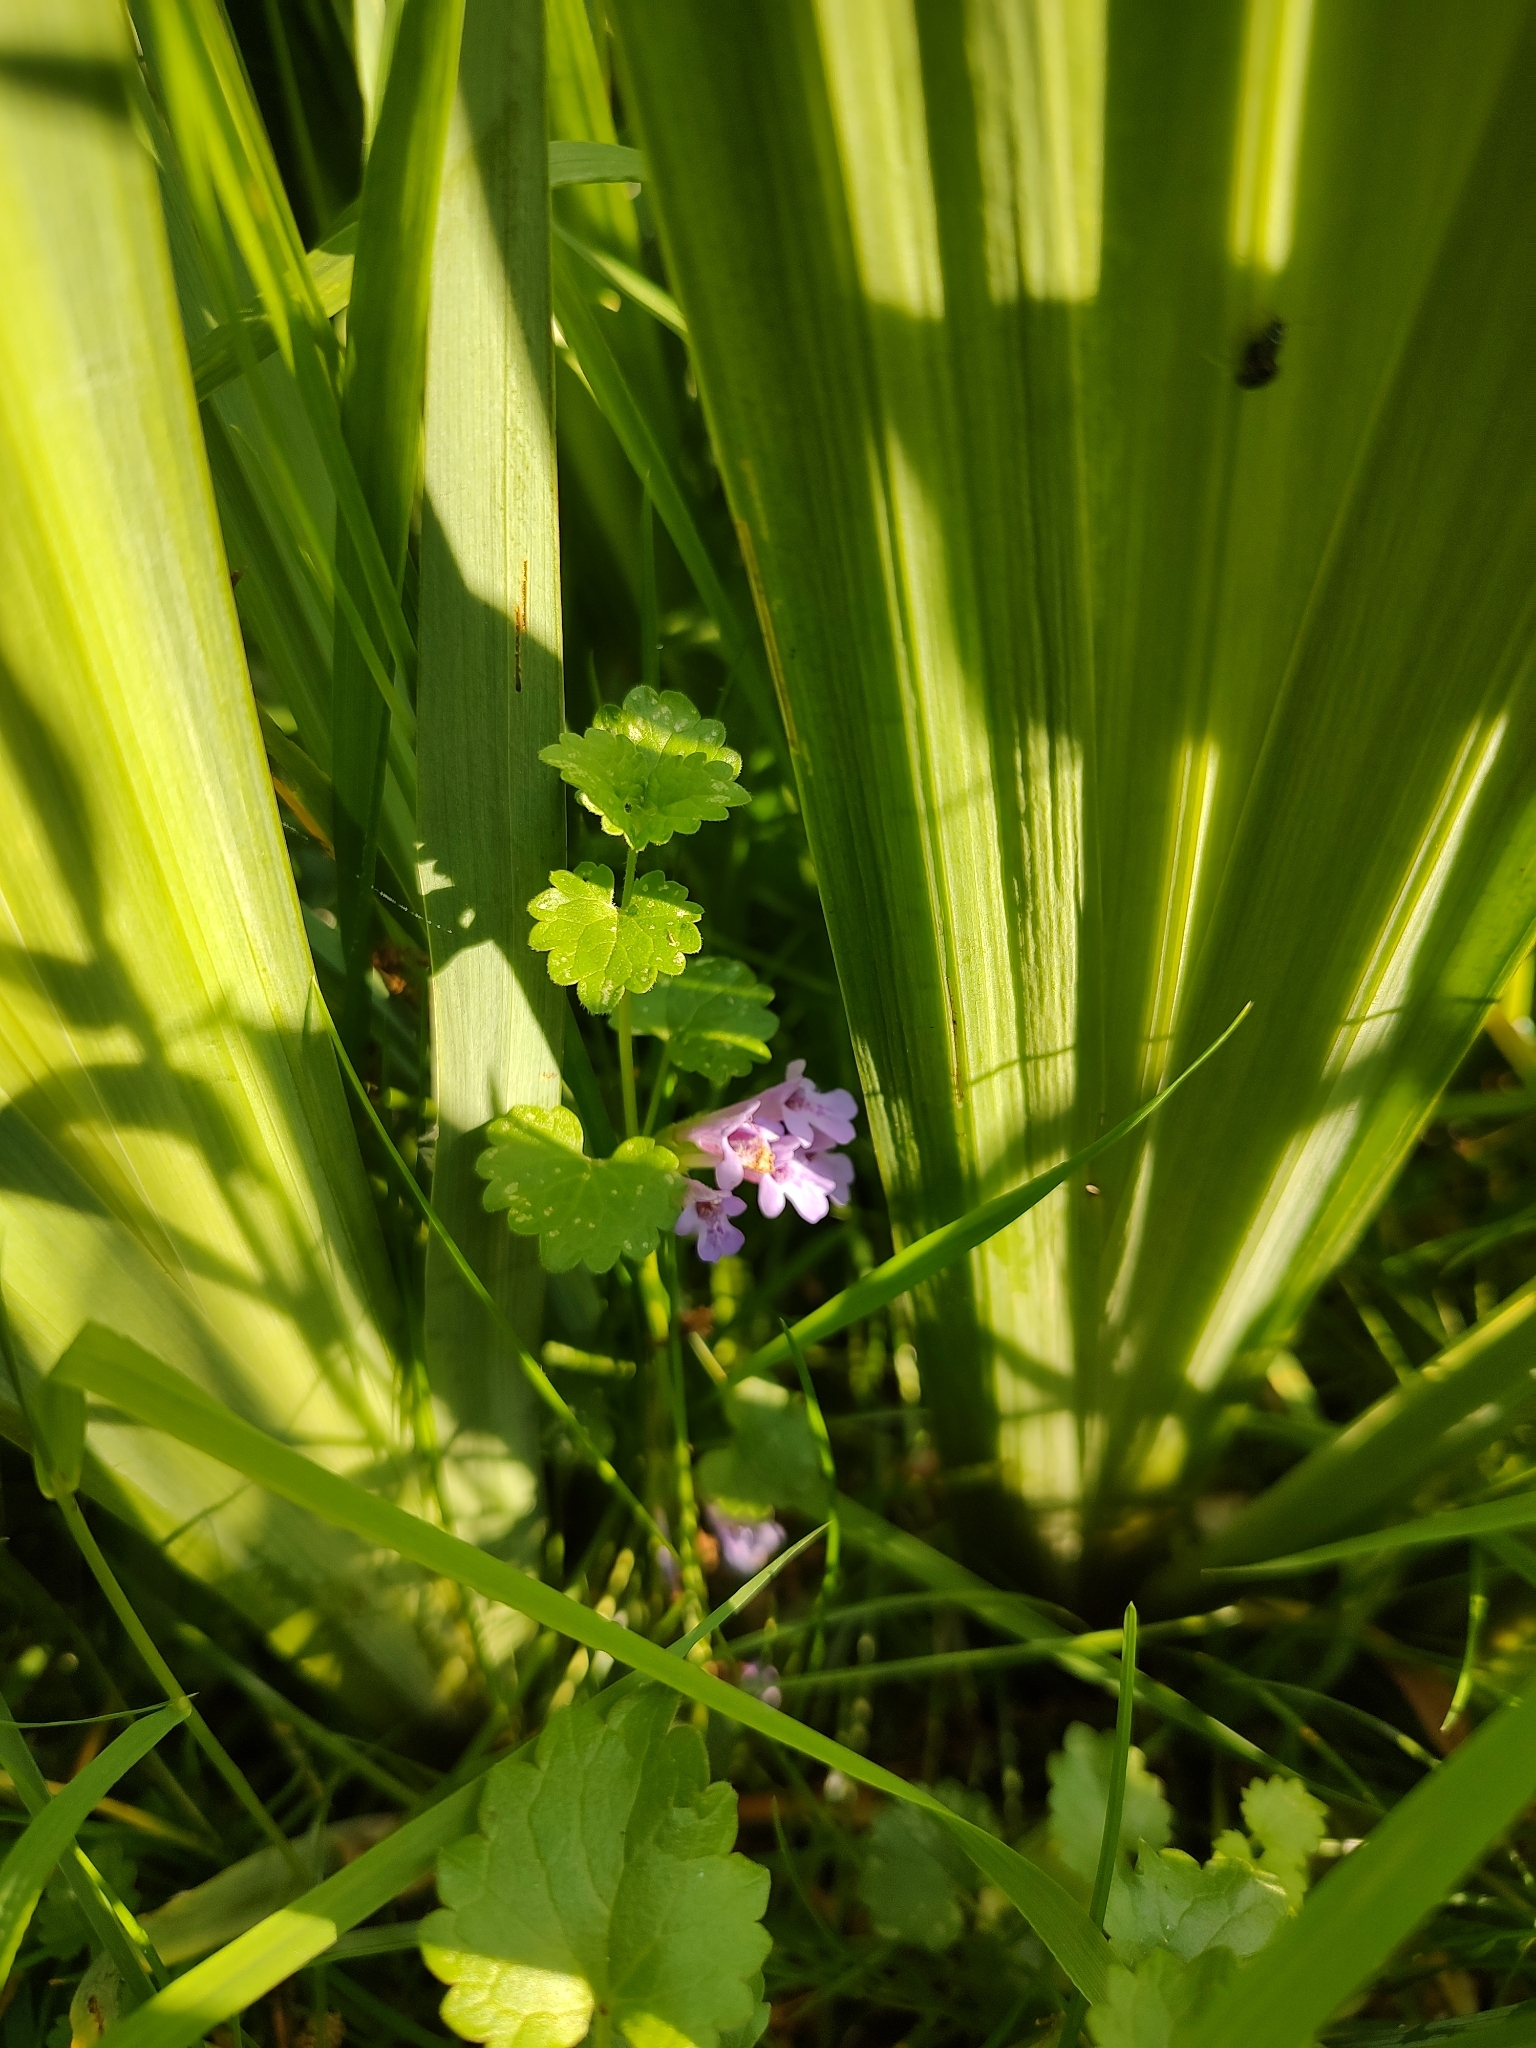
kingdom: Plantae
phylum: Tracheophyta
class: Magnoliopsida
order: Lamiales
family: Lamiaceae
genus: Glechoma
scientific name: Glechoma hederacea
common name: Ground ivy
